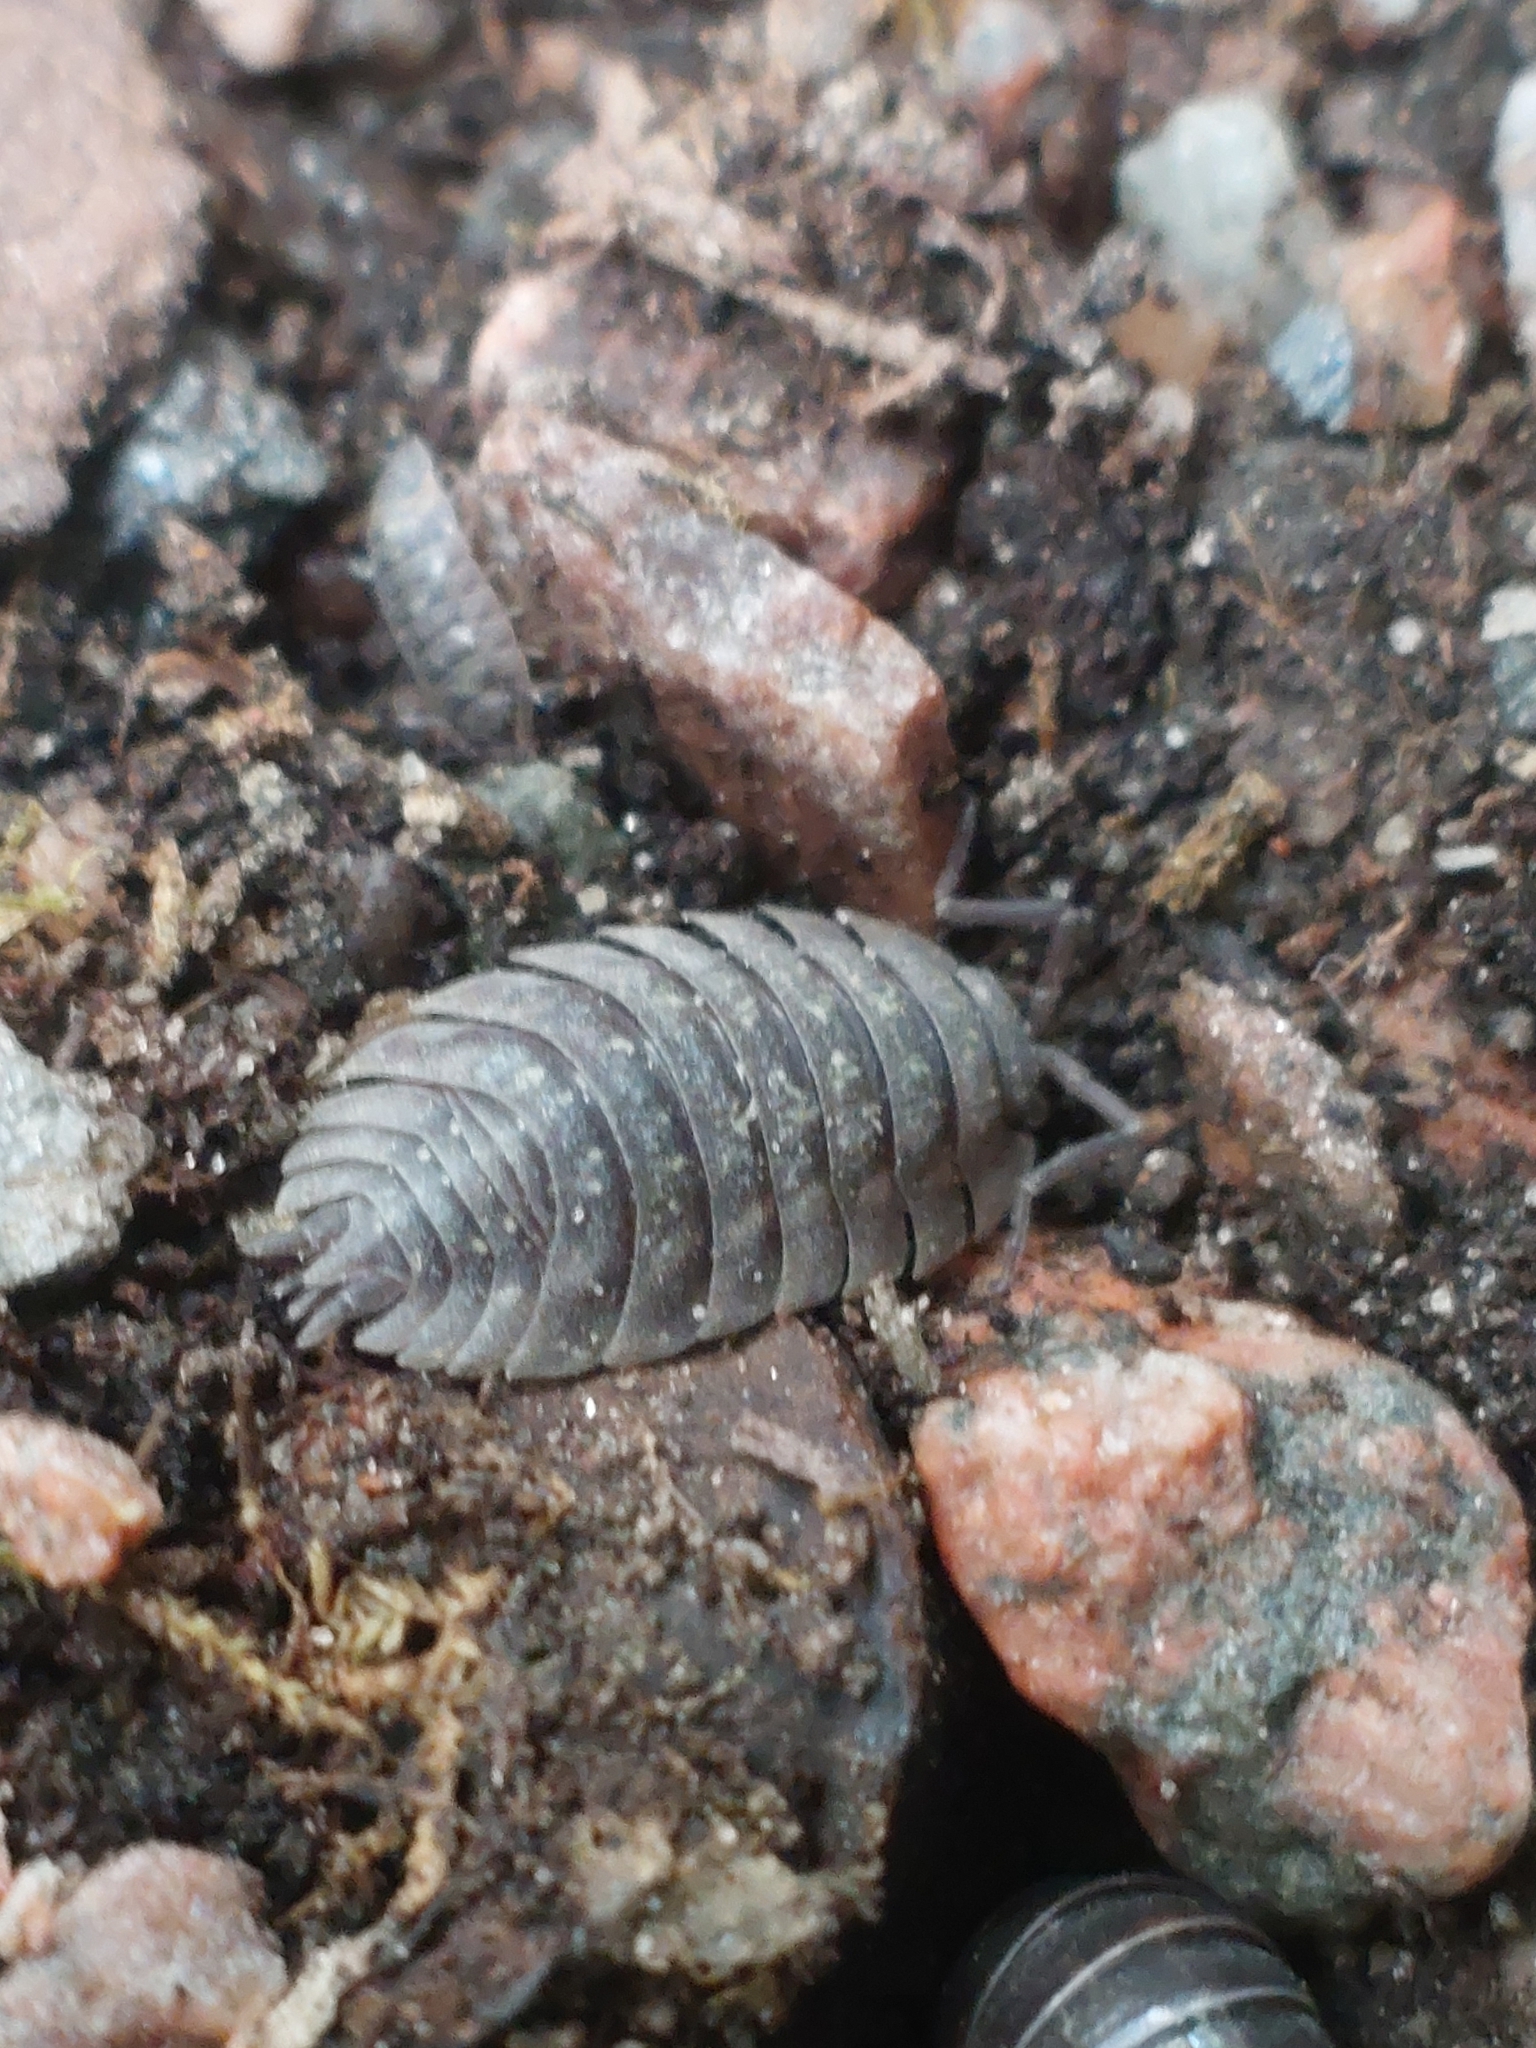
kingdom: Animalia
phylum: Arthropoda
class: Malacostraca
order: Isopoda
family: Oniscidae
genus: Oniscus
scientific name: Oniscus asellus
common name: Common shiny woodlouse
